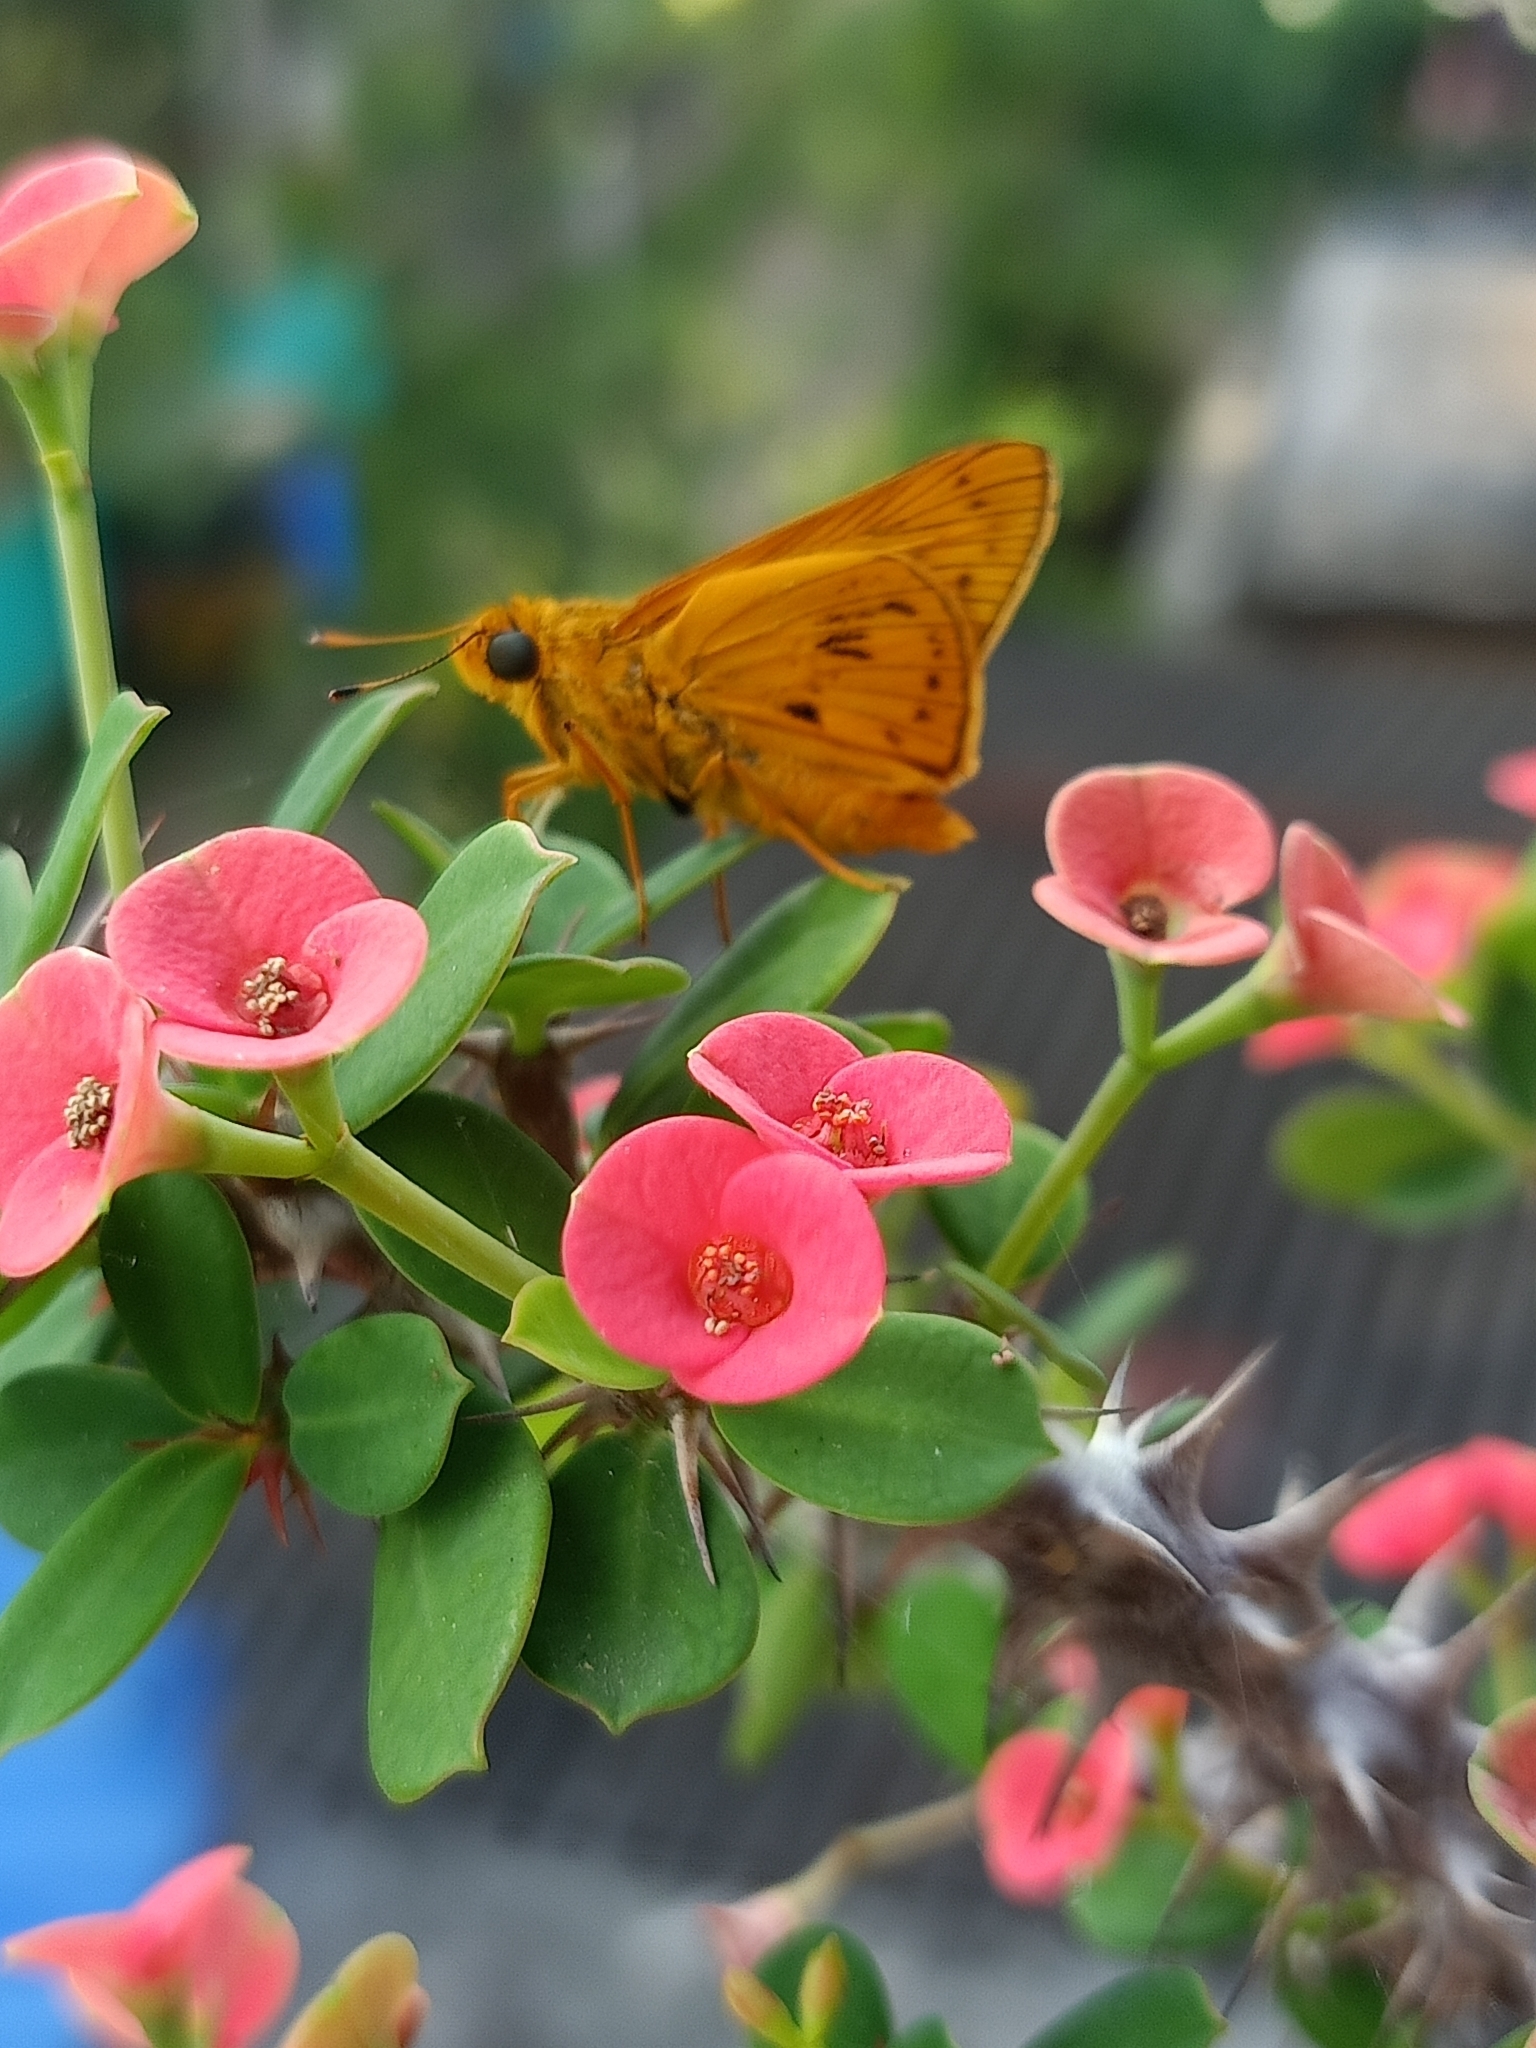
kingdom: Animalia
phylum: Arthropoda
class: Insecta
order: Lepidoptera
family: Hesperiidae
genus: Cephrenes
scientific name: Cephrenes
